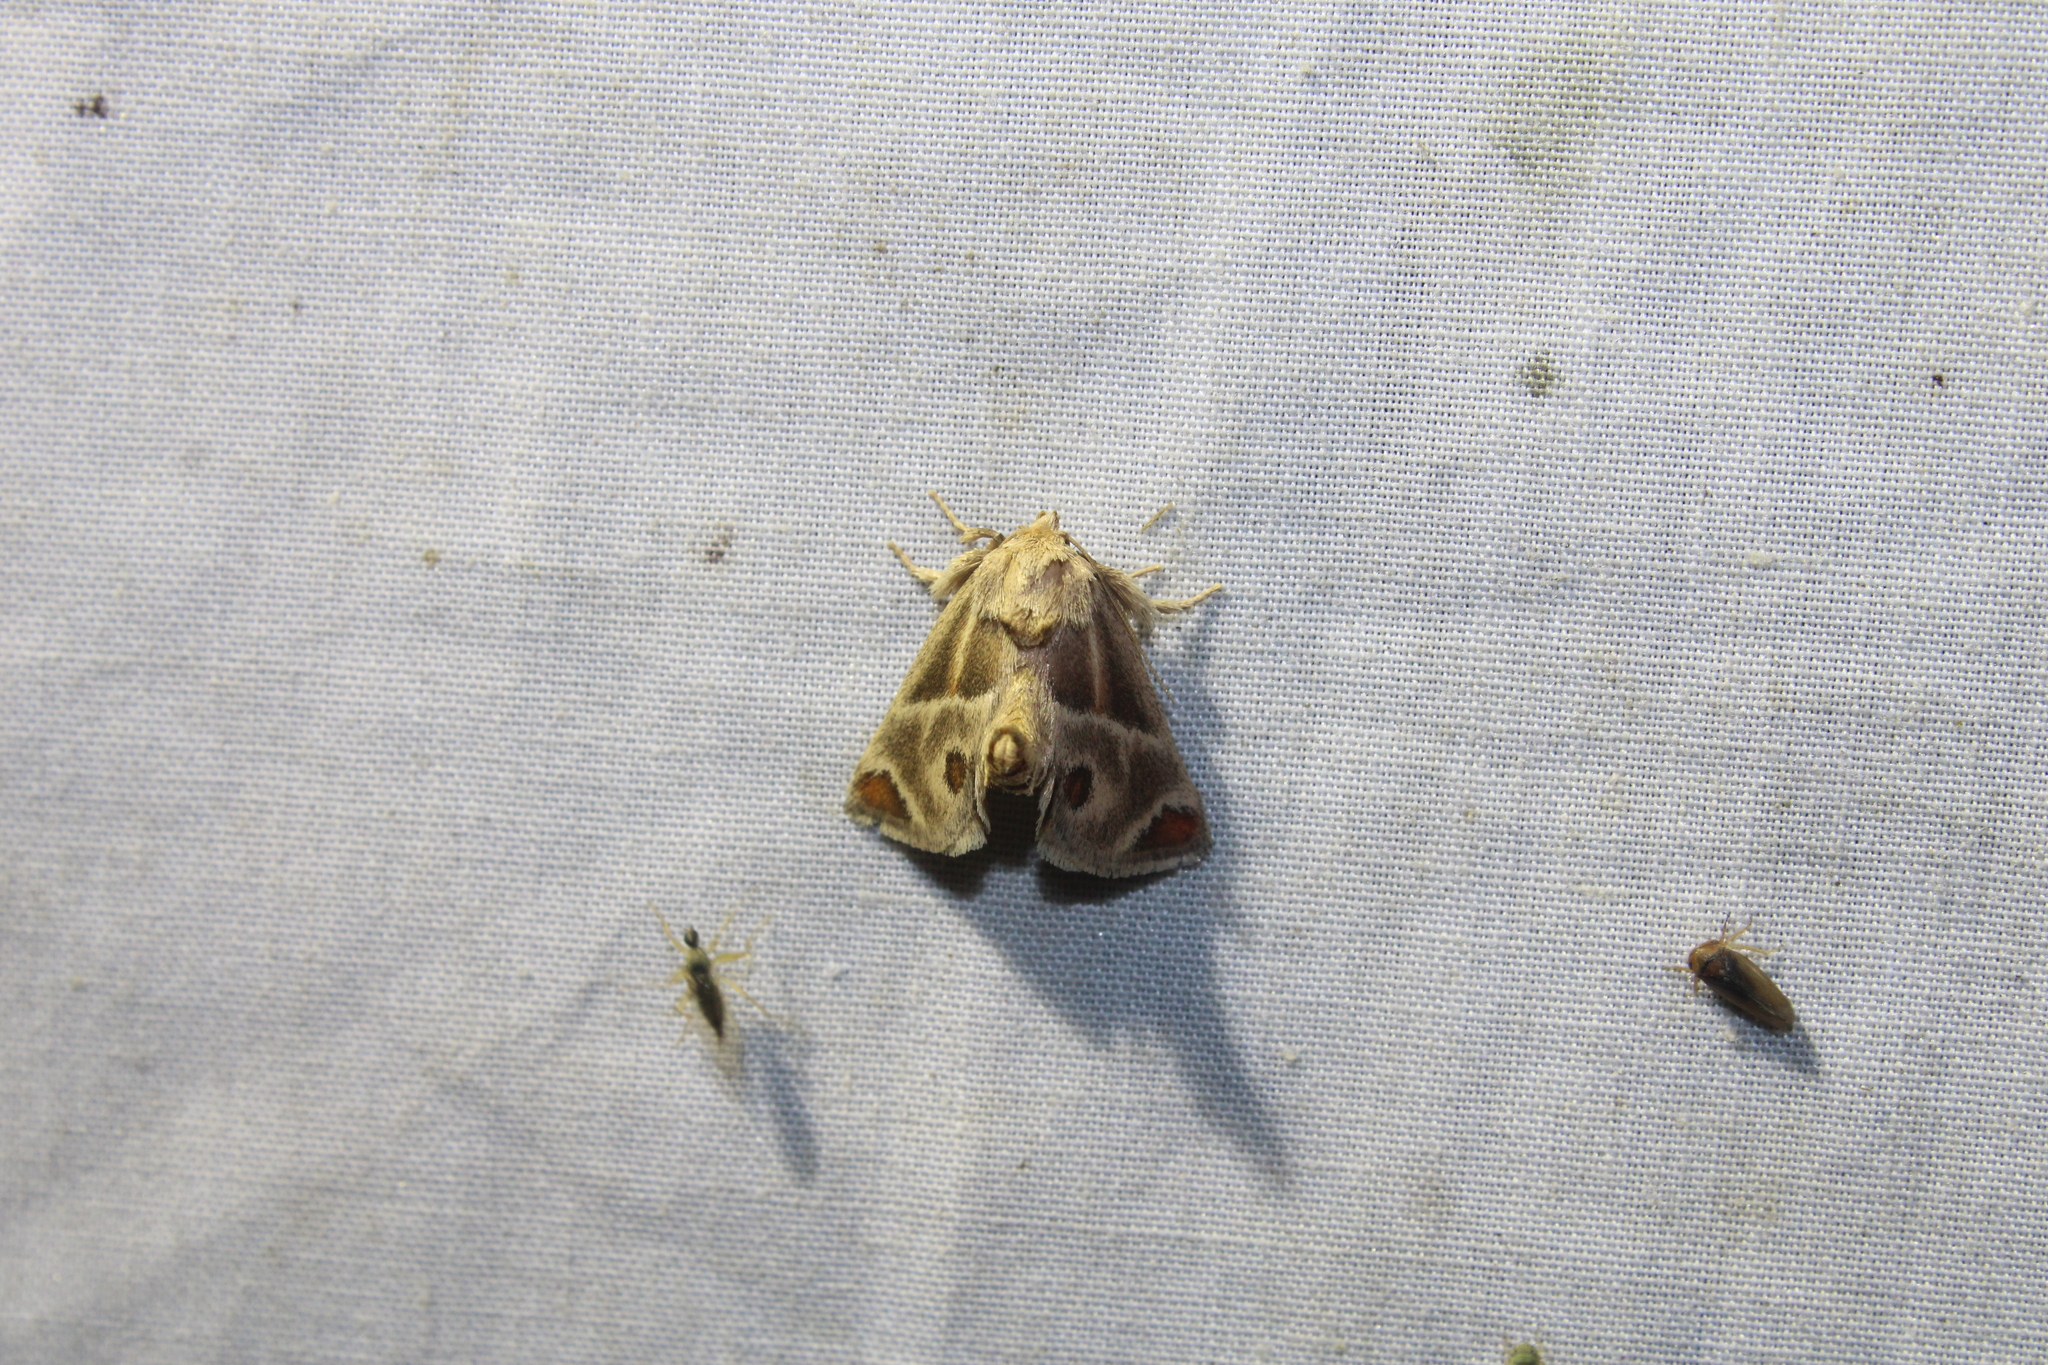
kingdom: Animalia
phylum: Arthropoda
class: Insecta
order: Lepidoptera
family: Limacodidae
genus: Apoda
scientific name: Apoda biguttata
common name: Shagreened slug moth
